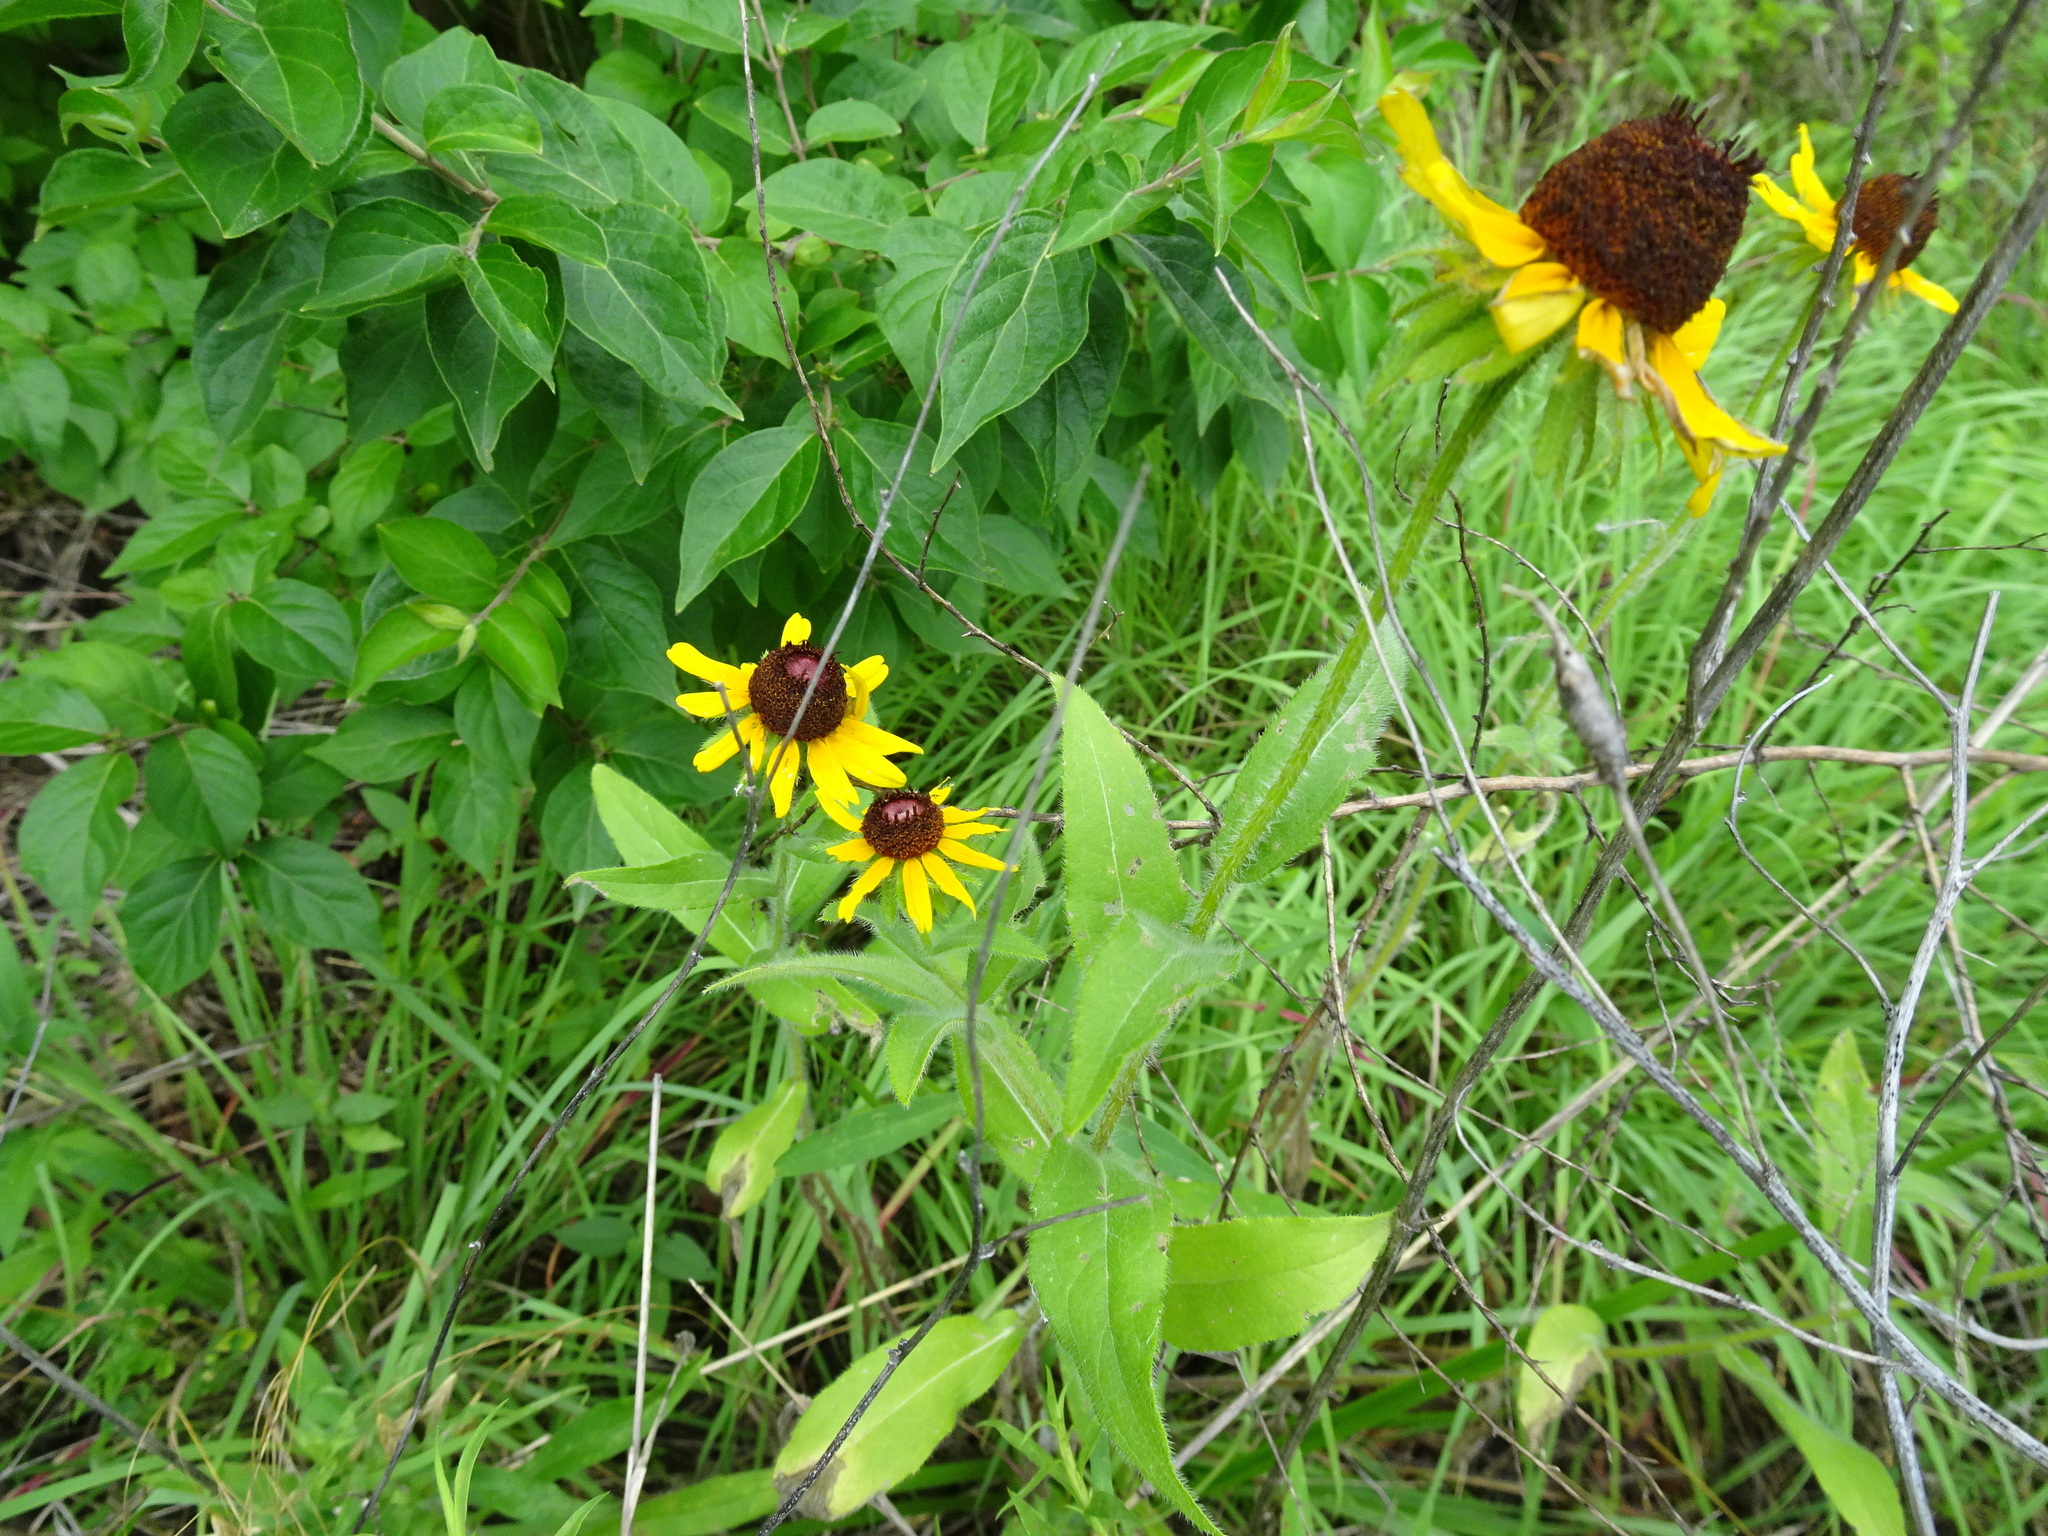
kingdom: Plantae
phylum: Tracheophyta
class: Magnoliopsida
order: Asterales
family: Asteraceae
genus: Rudbeckia
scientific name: Rudbeckia hirta
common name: Black-eyed-susan
